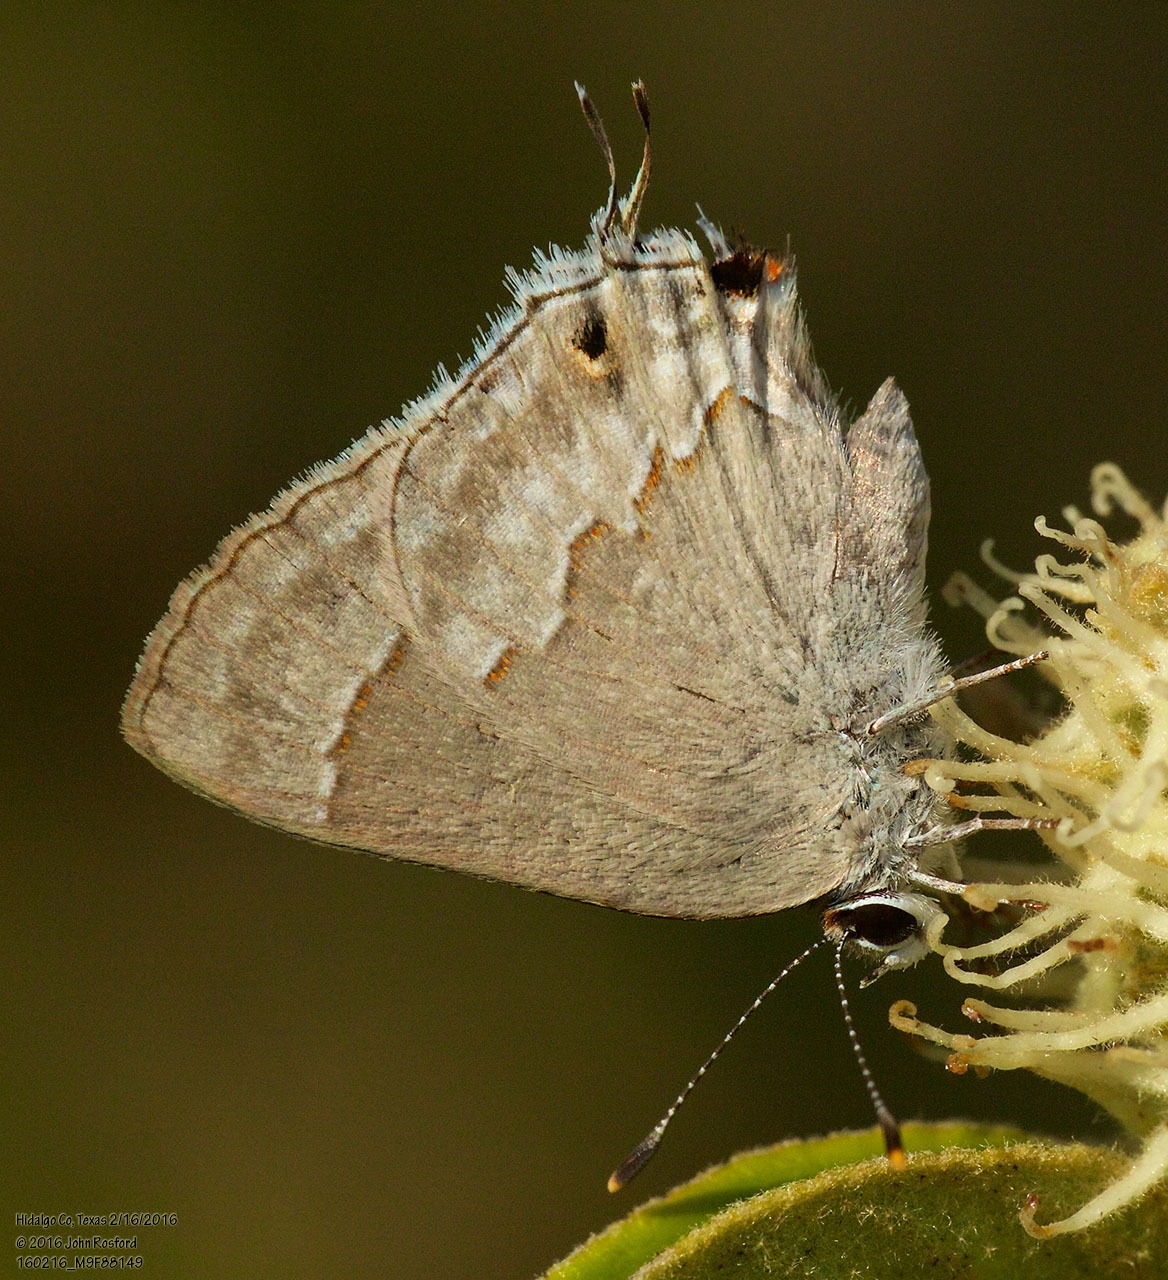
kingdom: Animalia
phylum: Arthropoda
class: Insecta
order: Lepidoptera
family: Lycaenidae
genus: Thecla
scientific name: Thecla bebrycia
